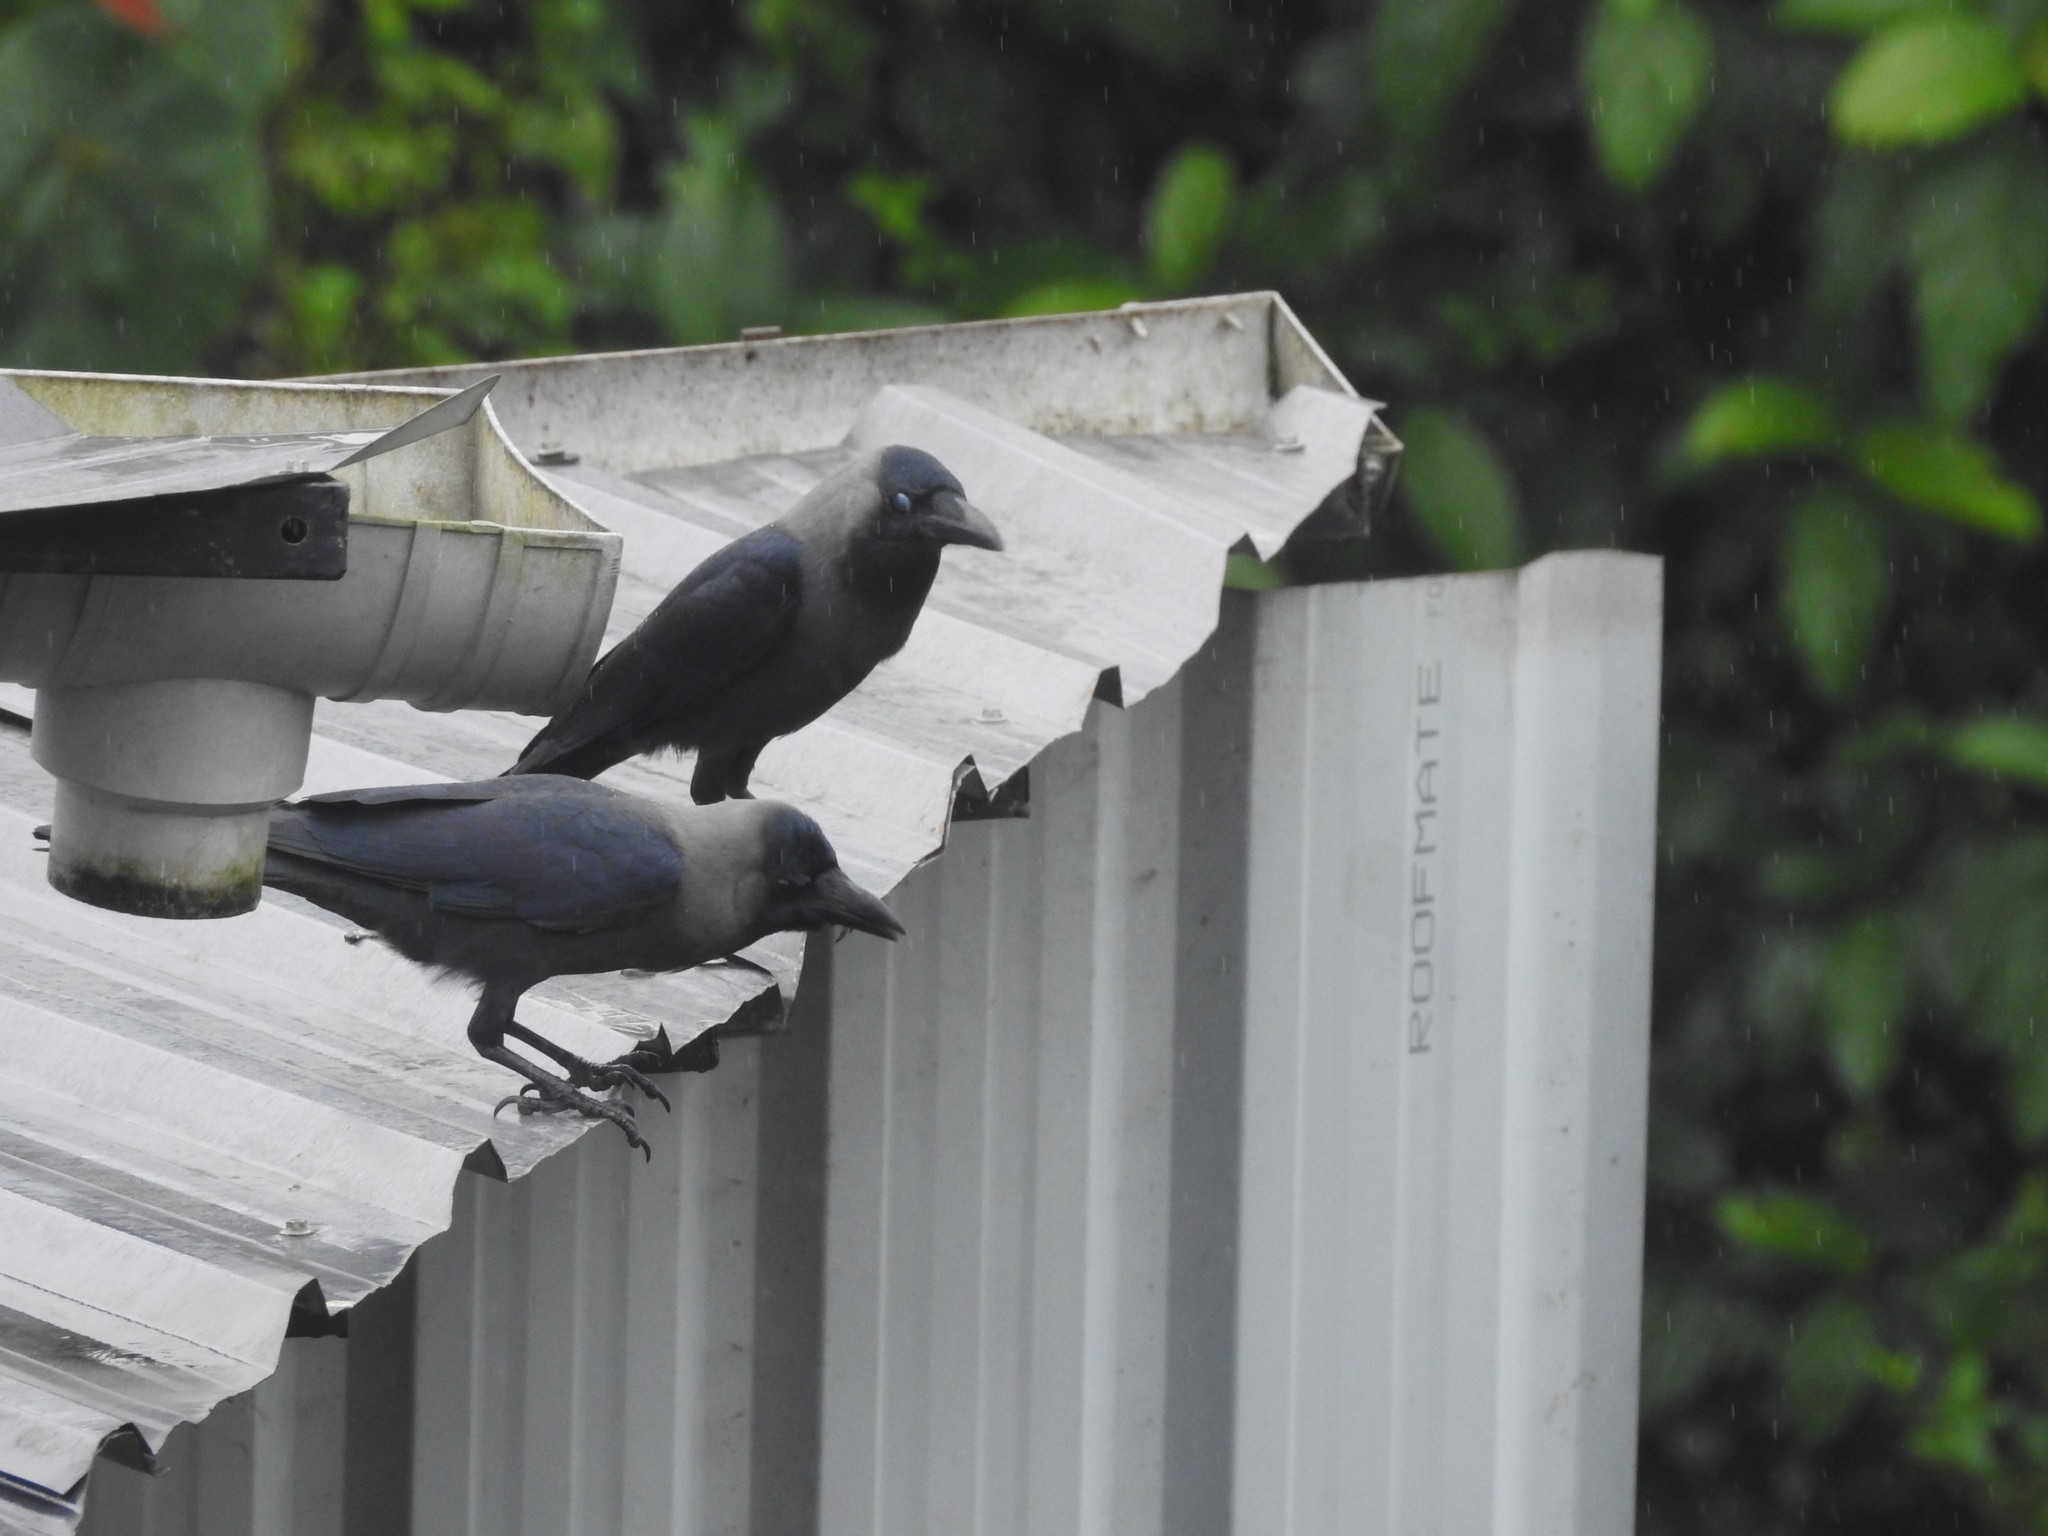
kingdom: Animalia
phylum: Chordata
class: Aves
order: Passeriformes
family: Corvidae
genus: Corvus
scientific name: Corvus splendens
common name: House crow
